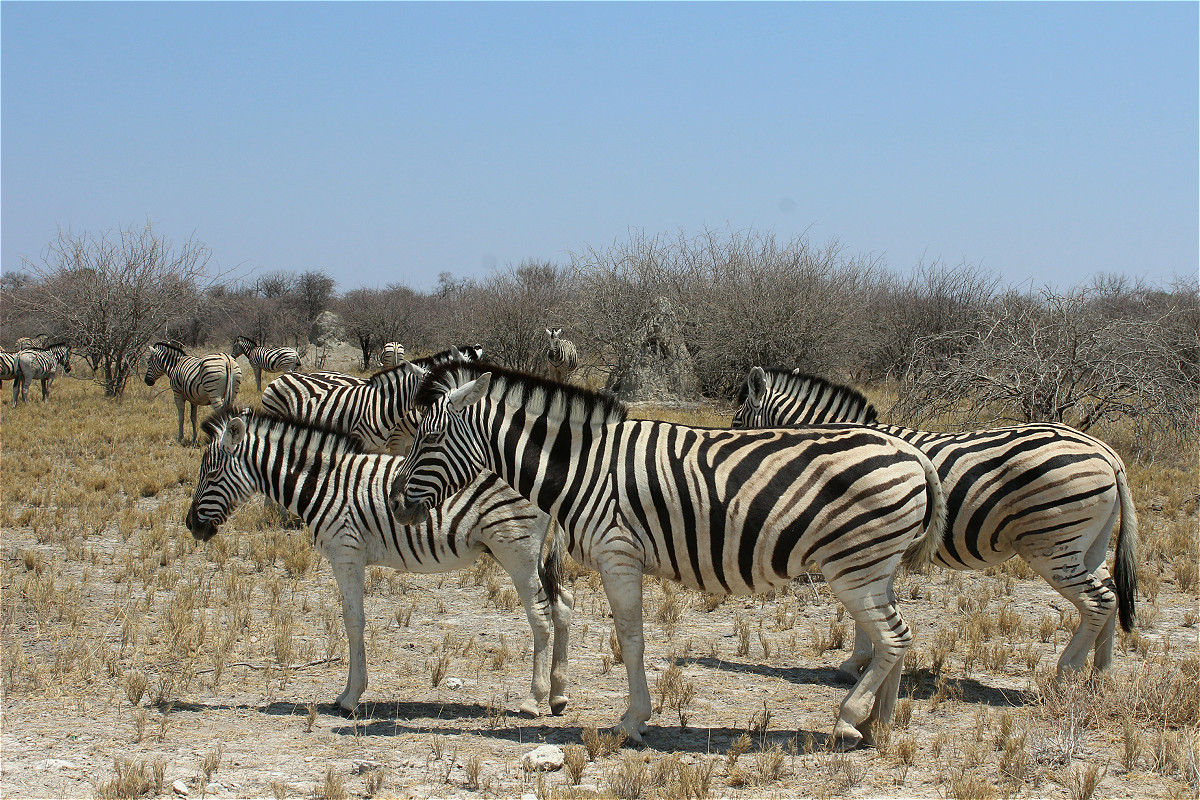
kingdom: Animalia
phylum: Chordata
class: Mammalia
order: Perissodactyla
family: Equidae
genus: Equus
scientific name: Equus quagga
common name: Plains zebra
